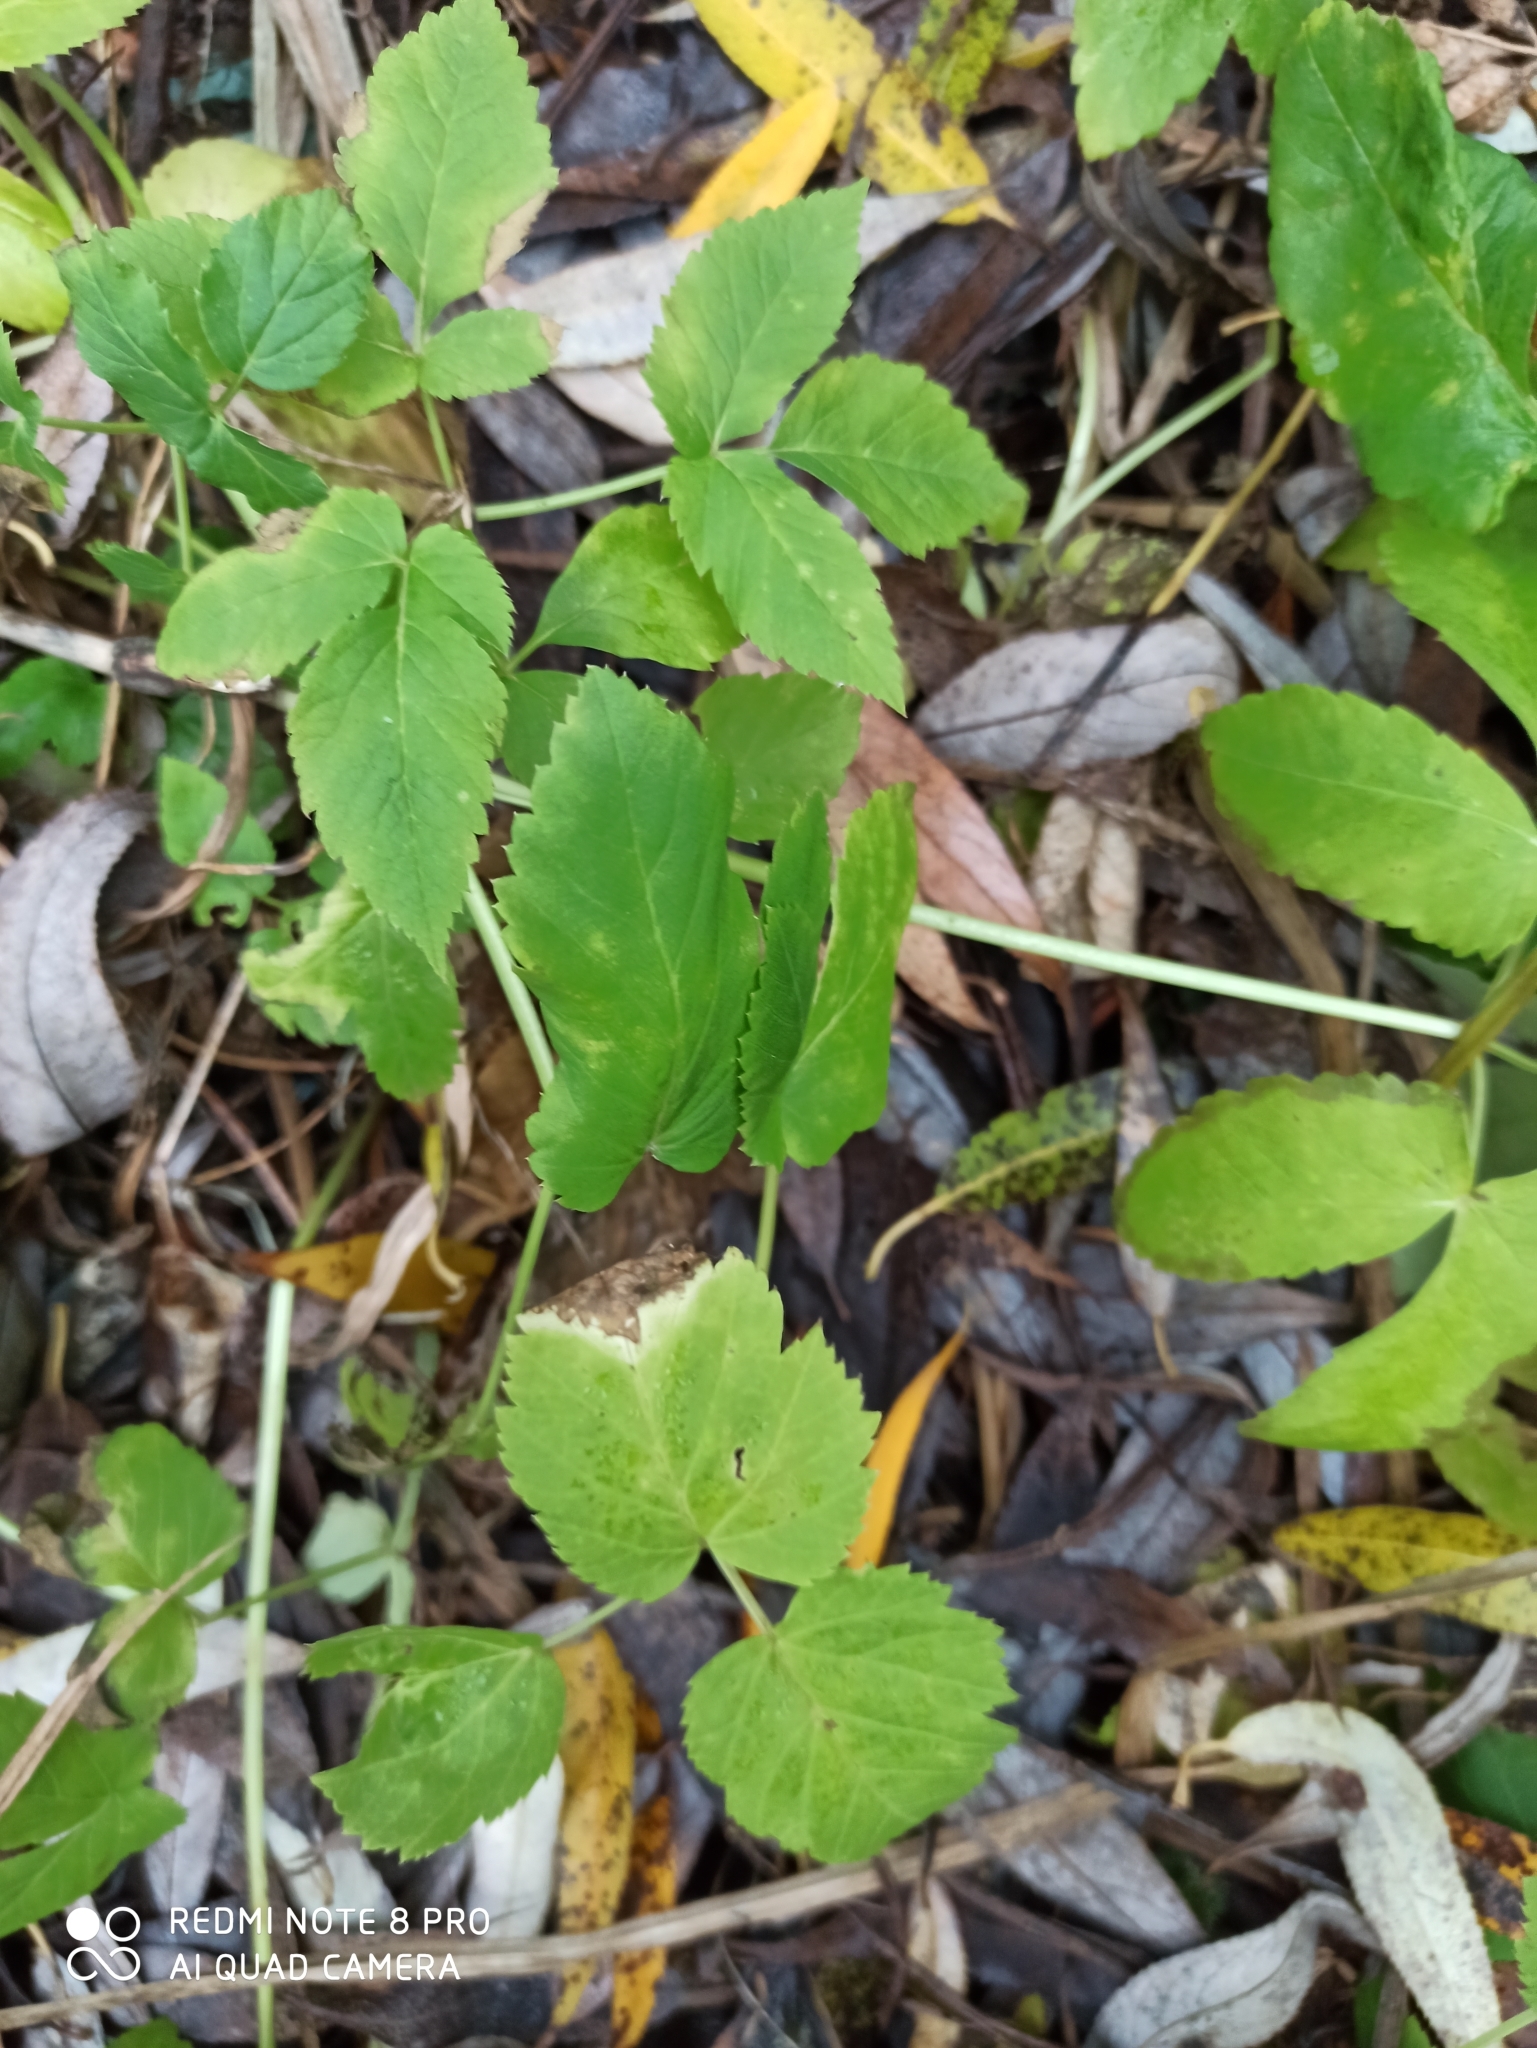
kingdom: Plantae
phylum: Tracheophyta
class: Magnoliopsida
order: Apiales
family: Apiaceae
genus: Aegopodium
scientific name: Aegopodium podagraria
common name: Ground-elder
